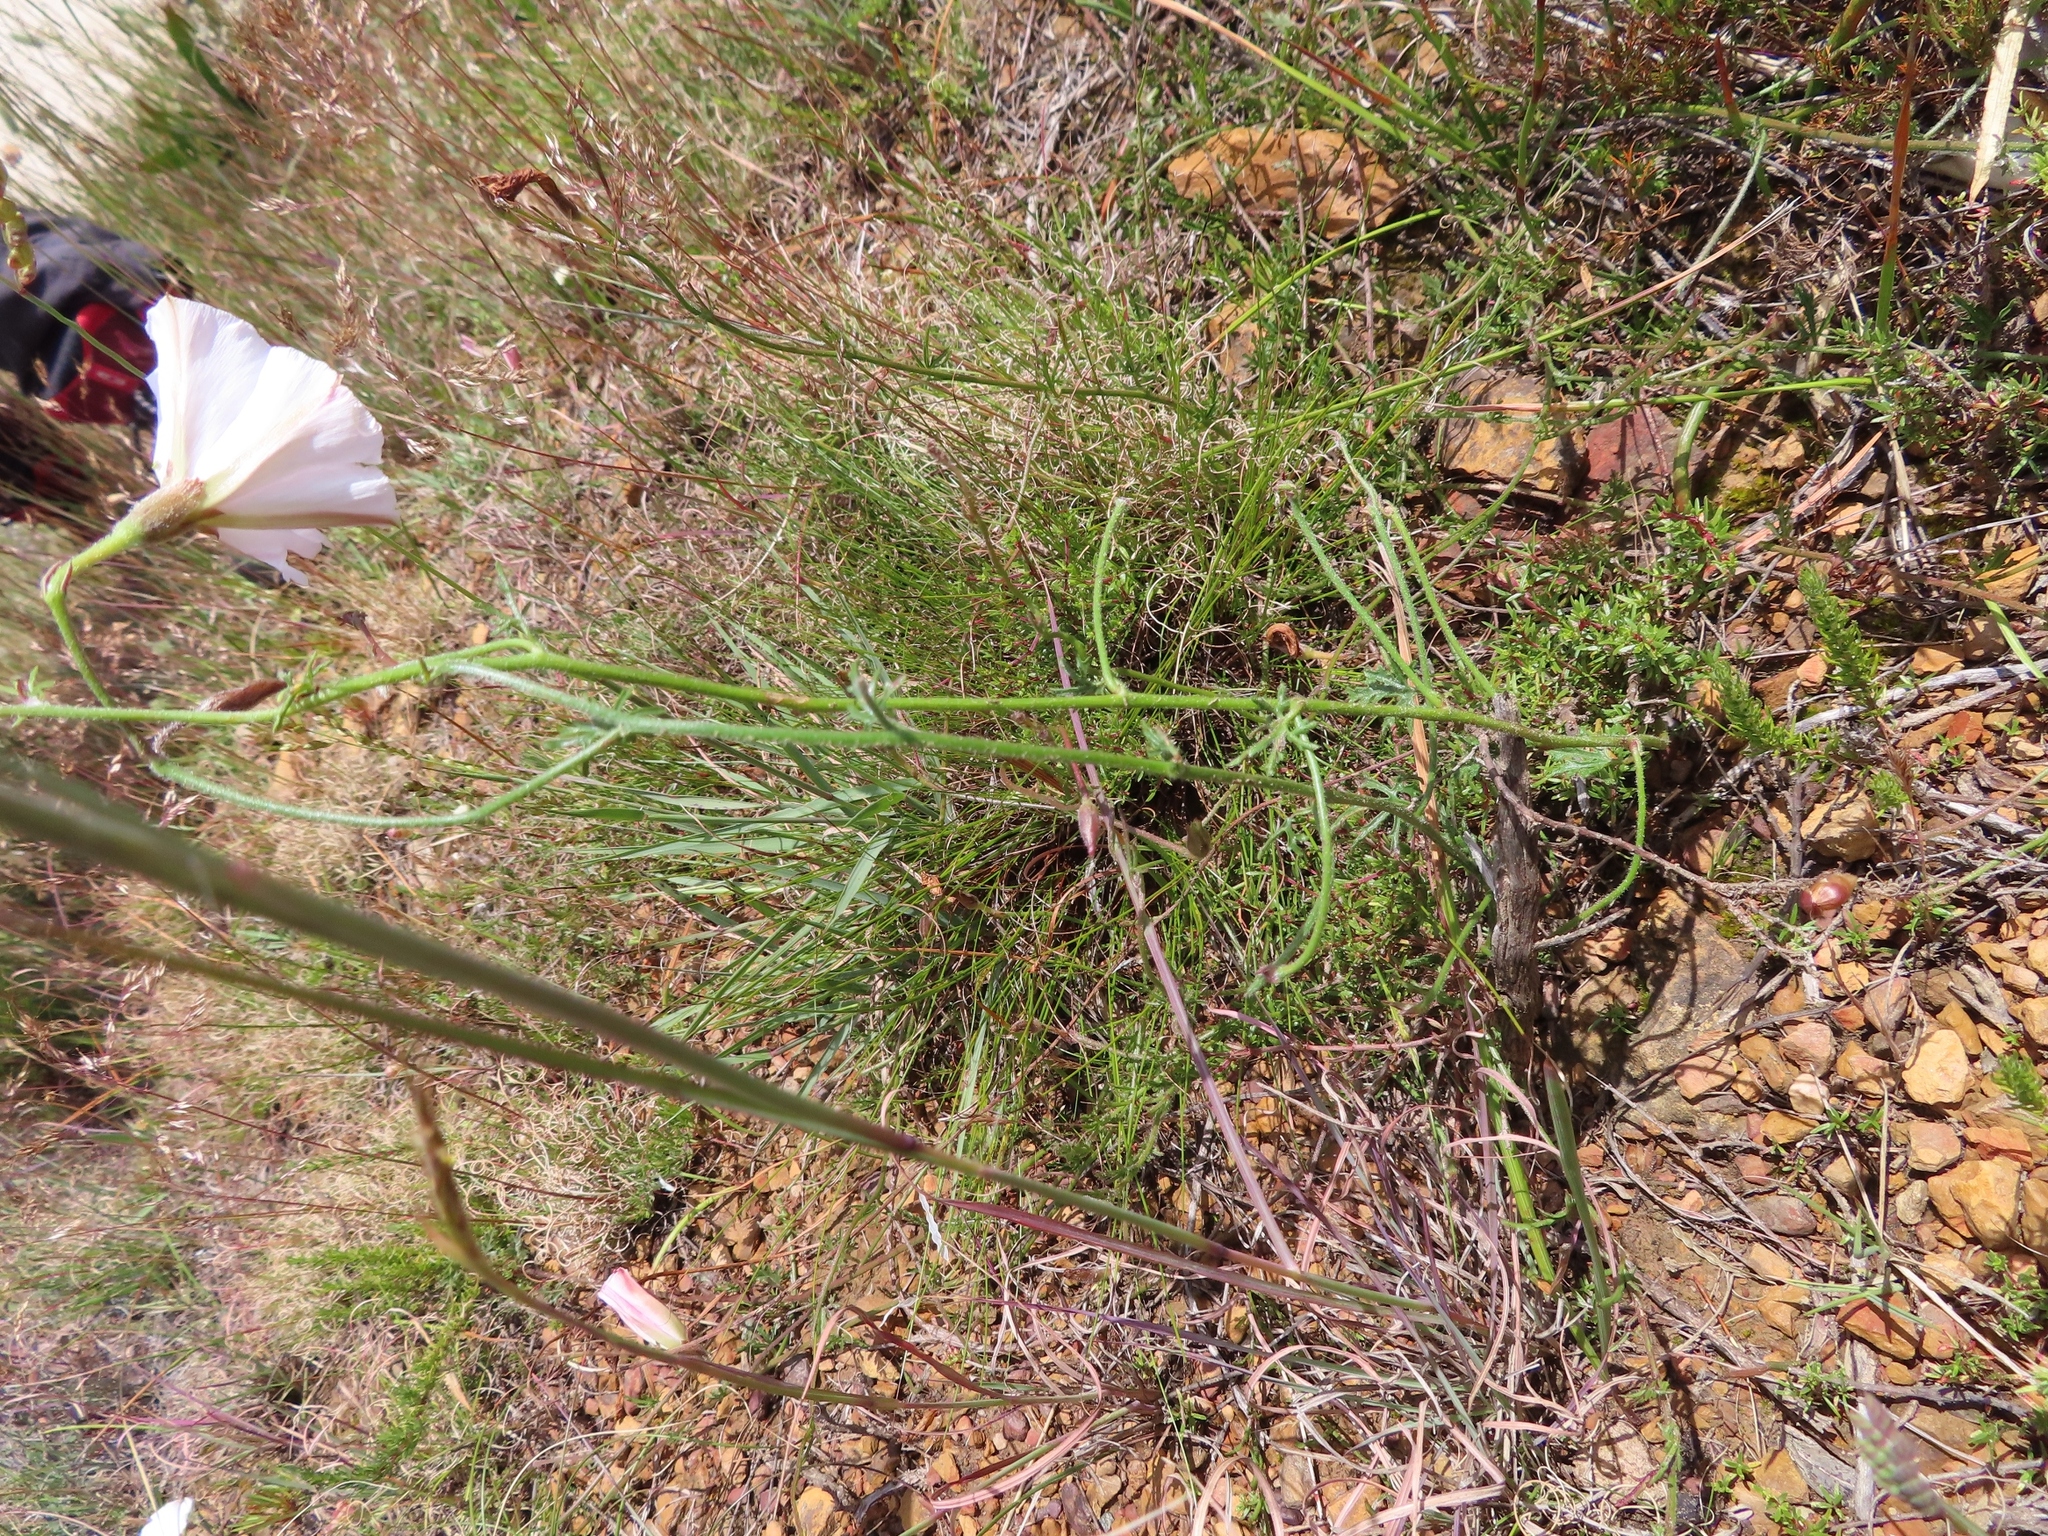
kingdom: Plantae
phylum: Tracheophyta
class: Magnoliopsida
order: Solanales
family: Convolvulaceae
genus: Convolvulus
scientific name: Convolvulus capensis
